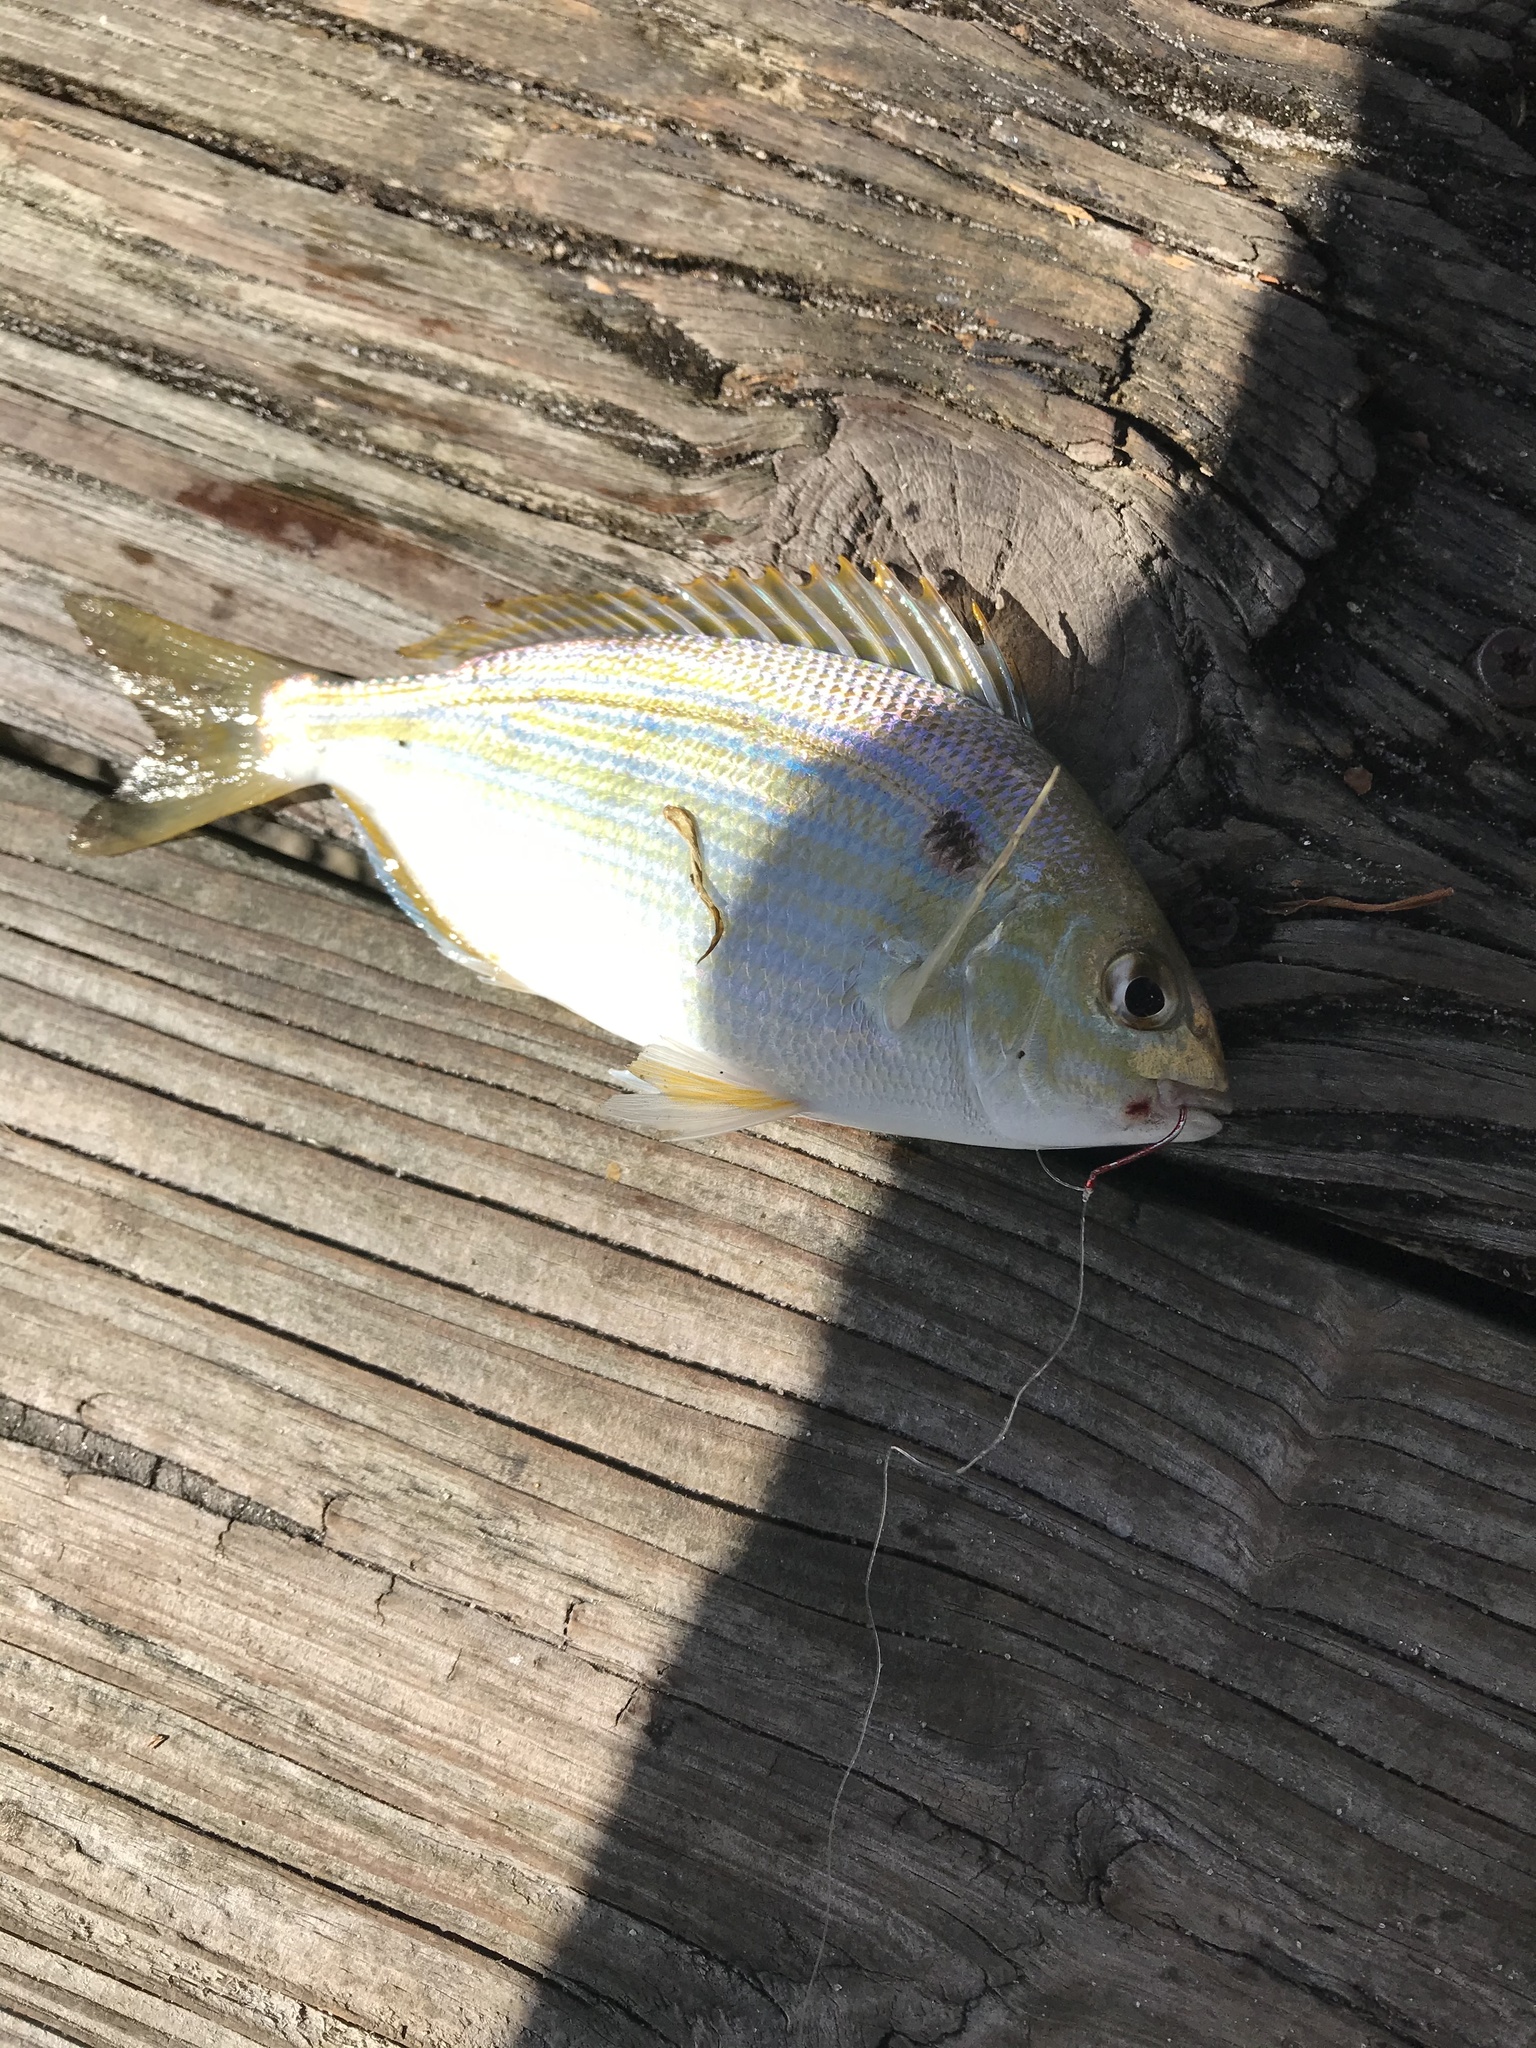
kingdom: Animalia
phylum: Chordata
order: Perciformes
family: Sparidae
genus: Lagodon
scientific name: Lagodon rhomboides
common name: Pinfish
